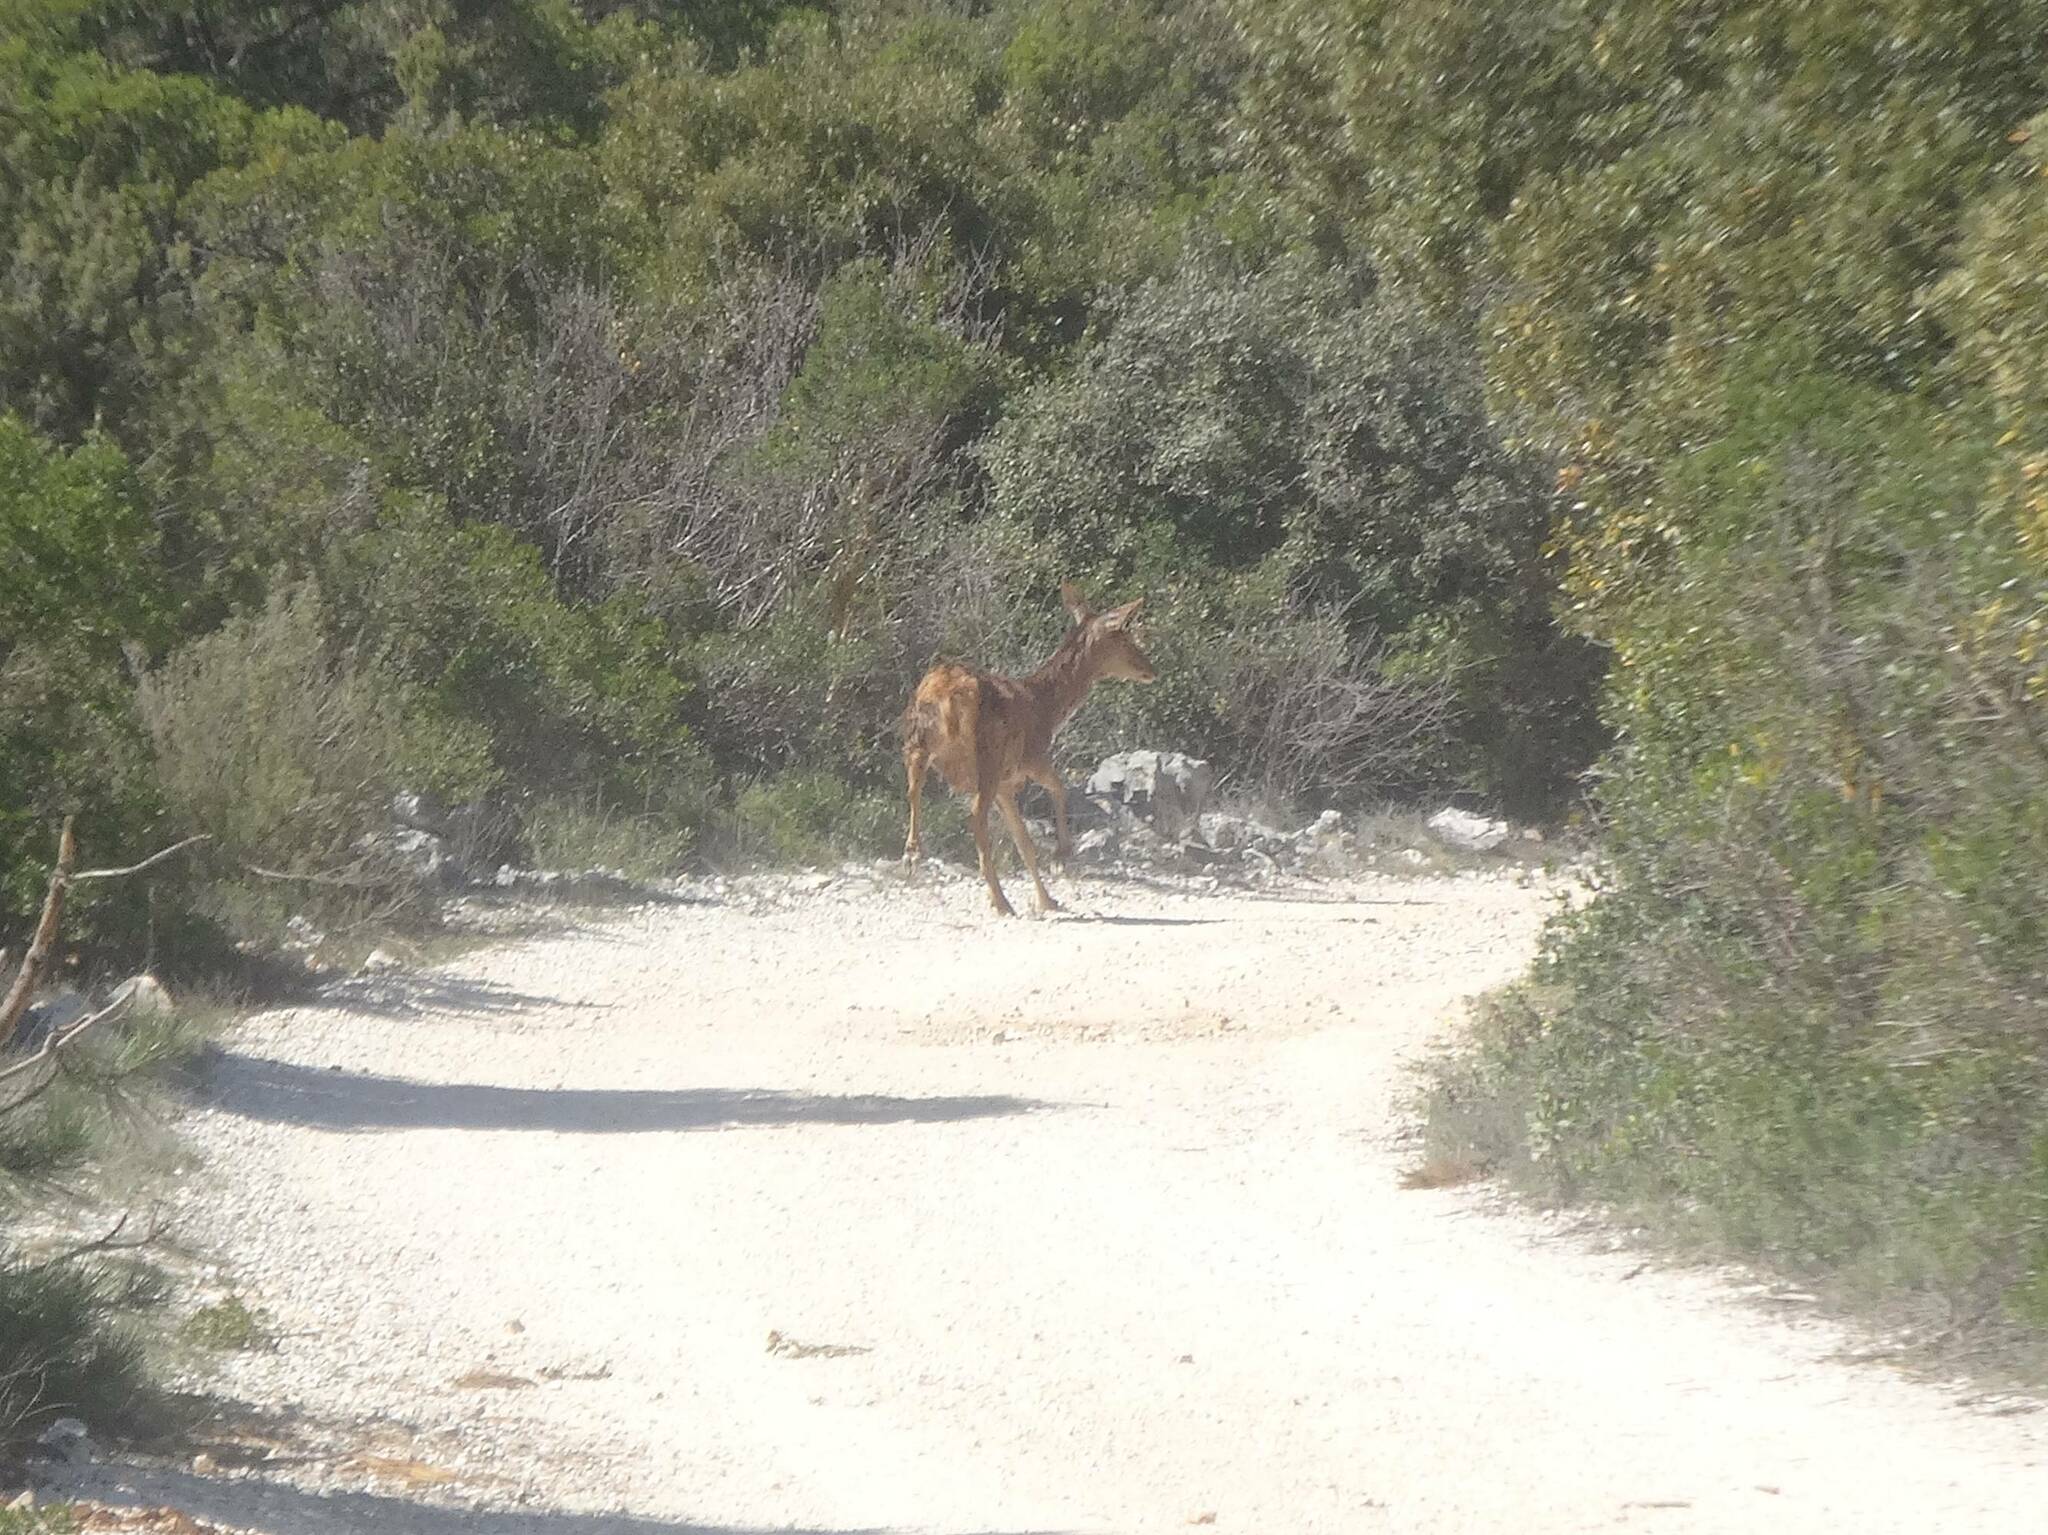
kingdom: Animalia
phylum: Chordata
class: Mammalia
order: Artiodactyla
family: Cervidae
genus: Cervus
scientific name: Cervus elaphus
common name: Red deer
